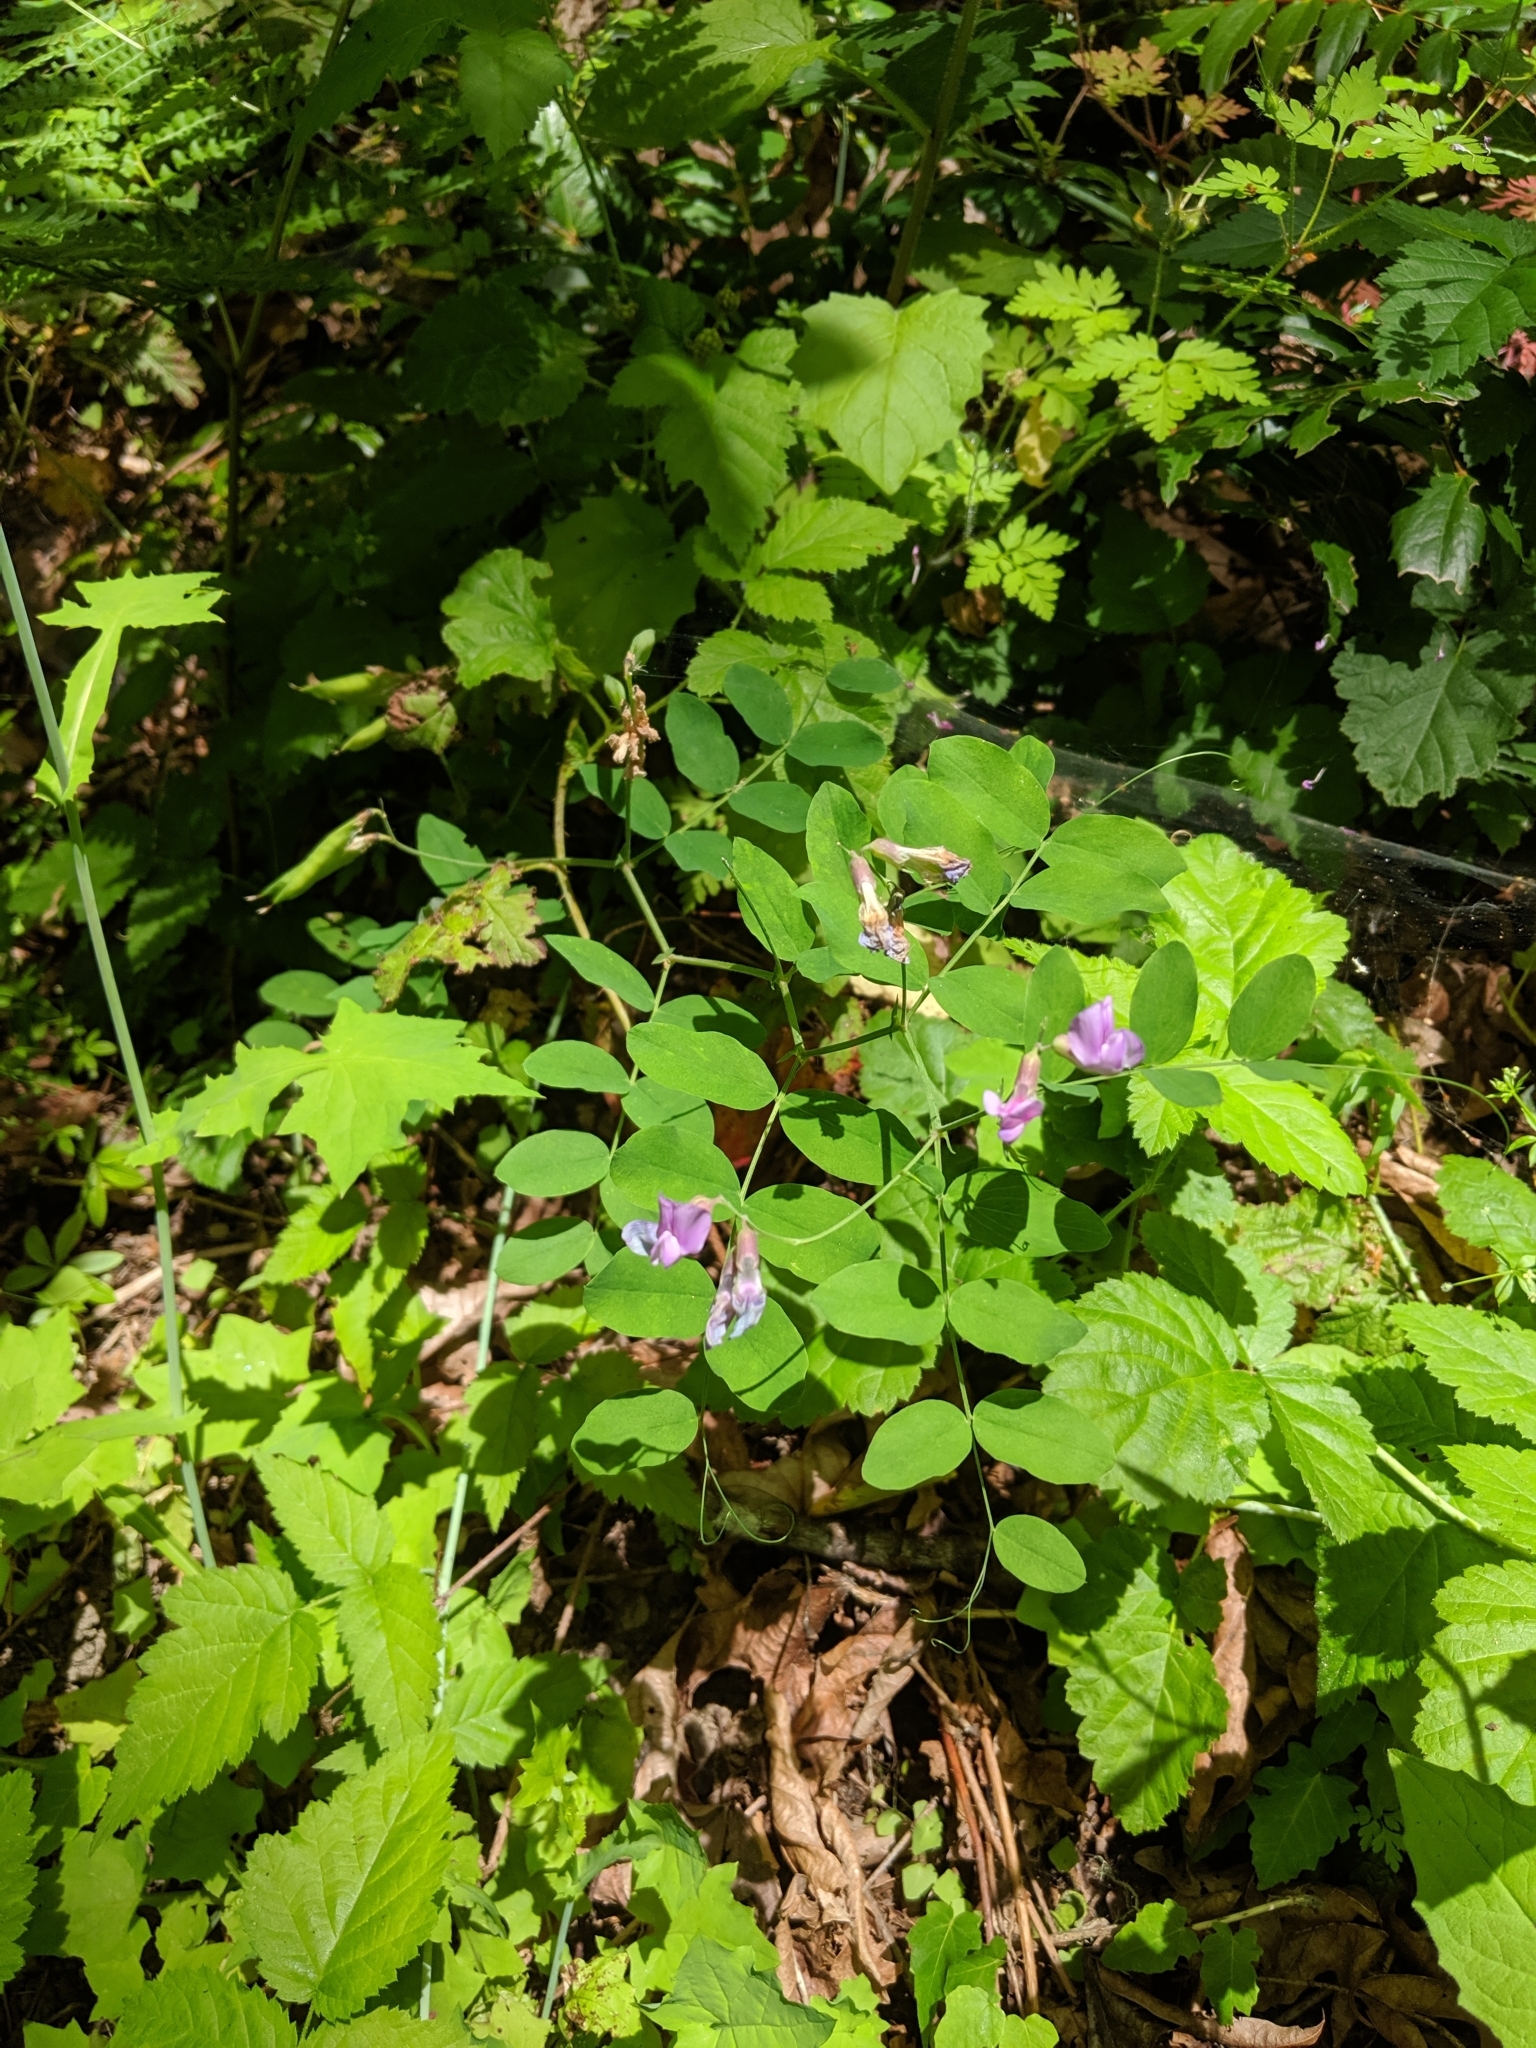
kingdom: Plantae
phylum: Tracheophyta
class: Magnoliopsida
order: Fabales
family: Fabaceae
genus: Lathyrus
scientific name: Lathyrus nevadensis
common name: Sierra nevada peavine
